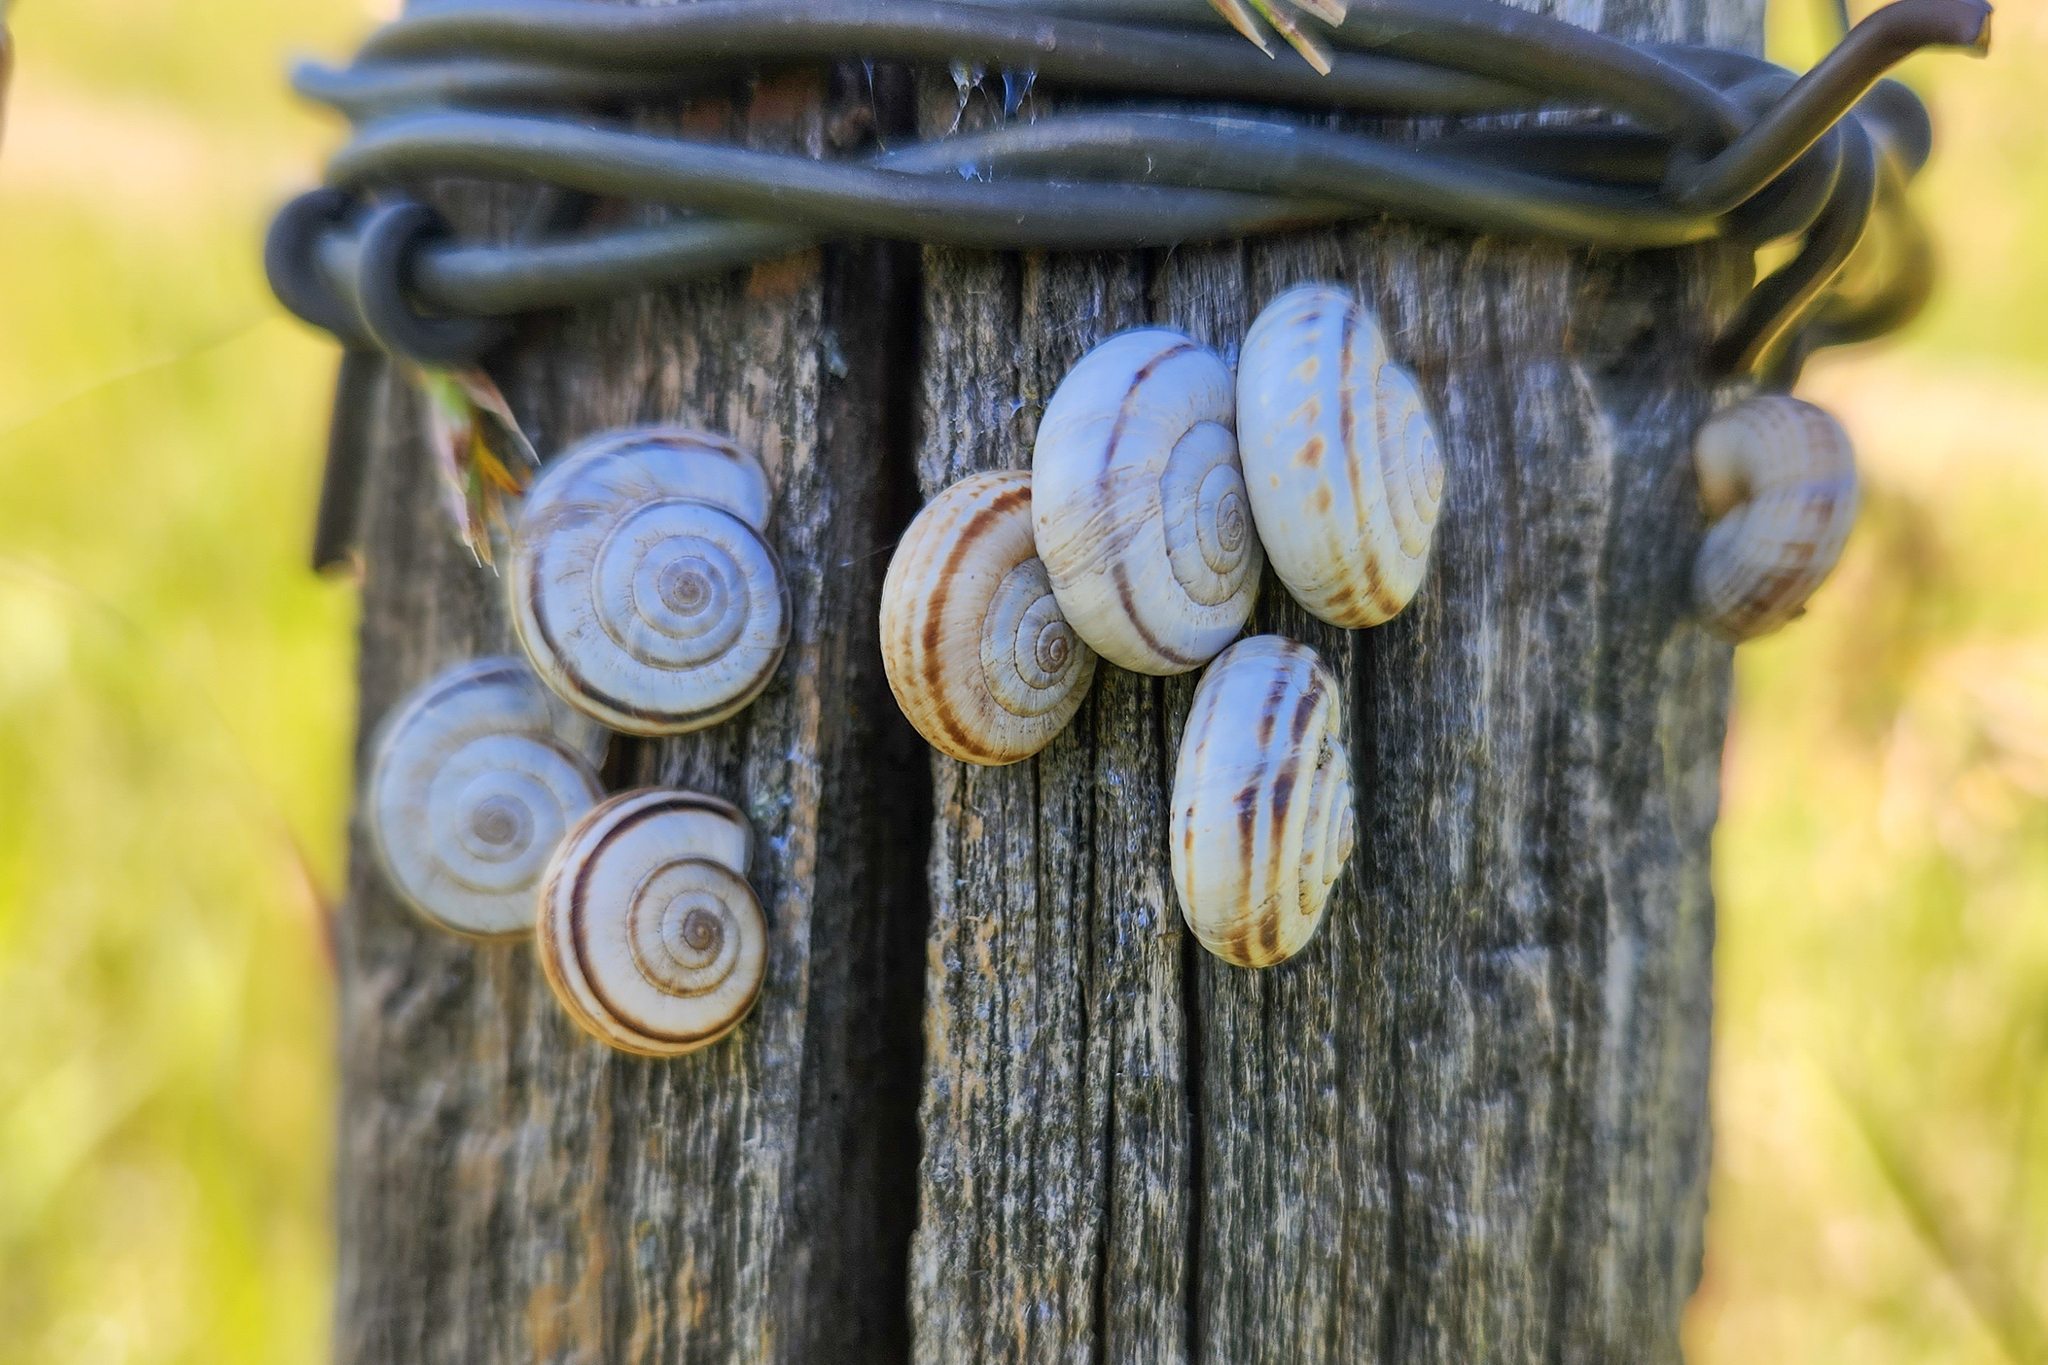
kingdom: Animalia
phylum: Mollusca
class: Gastropoda
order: Stylommatophora
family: Geomitridae
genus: Xerolenta
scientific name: Xerolenta obvia
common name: White heath snail
